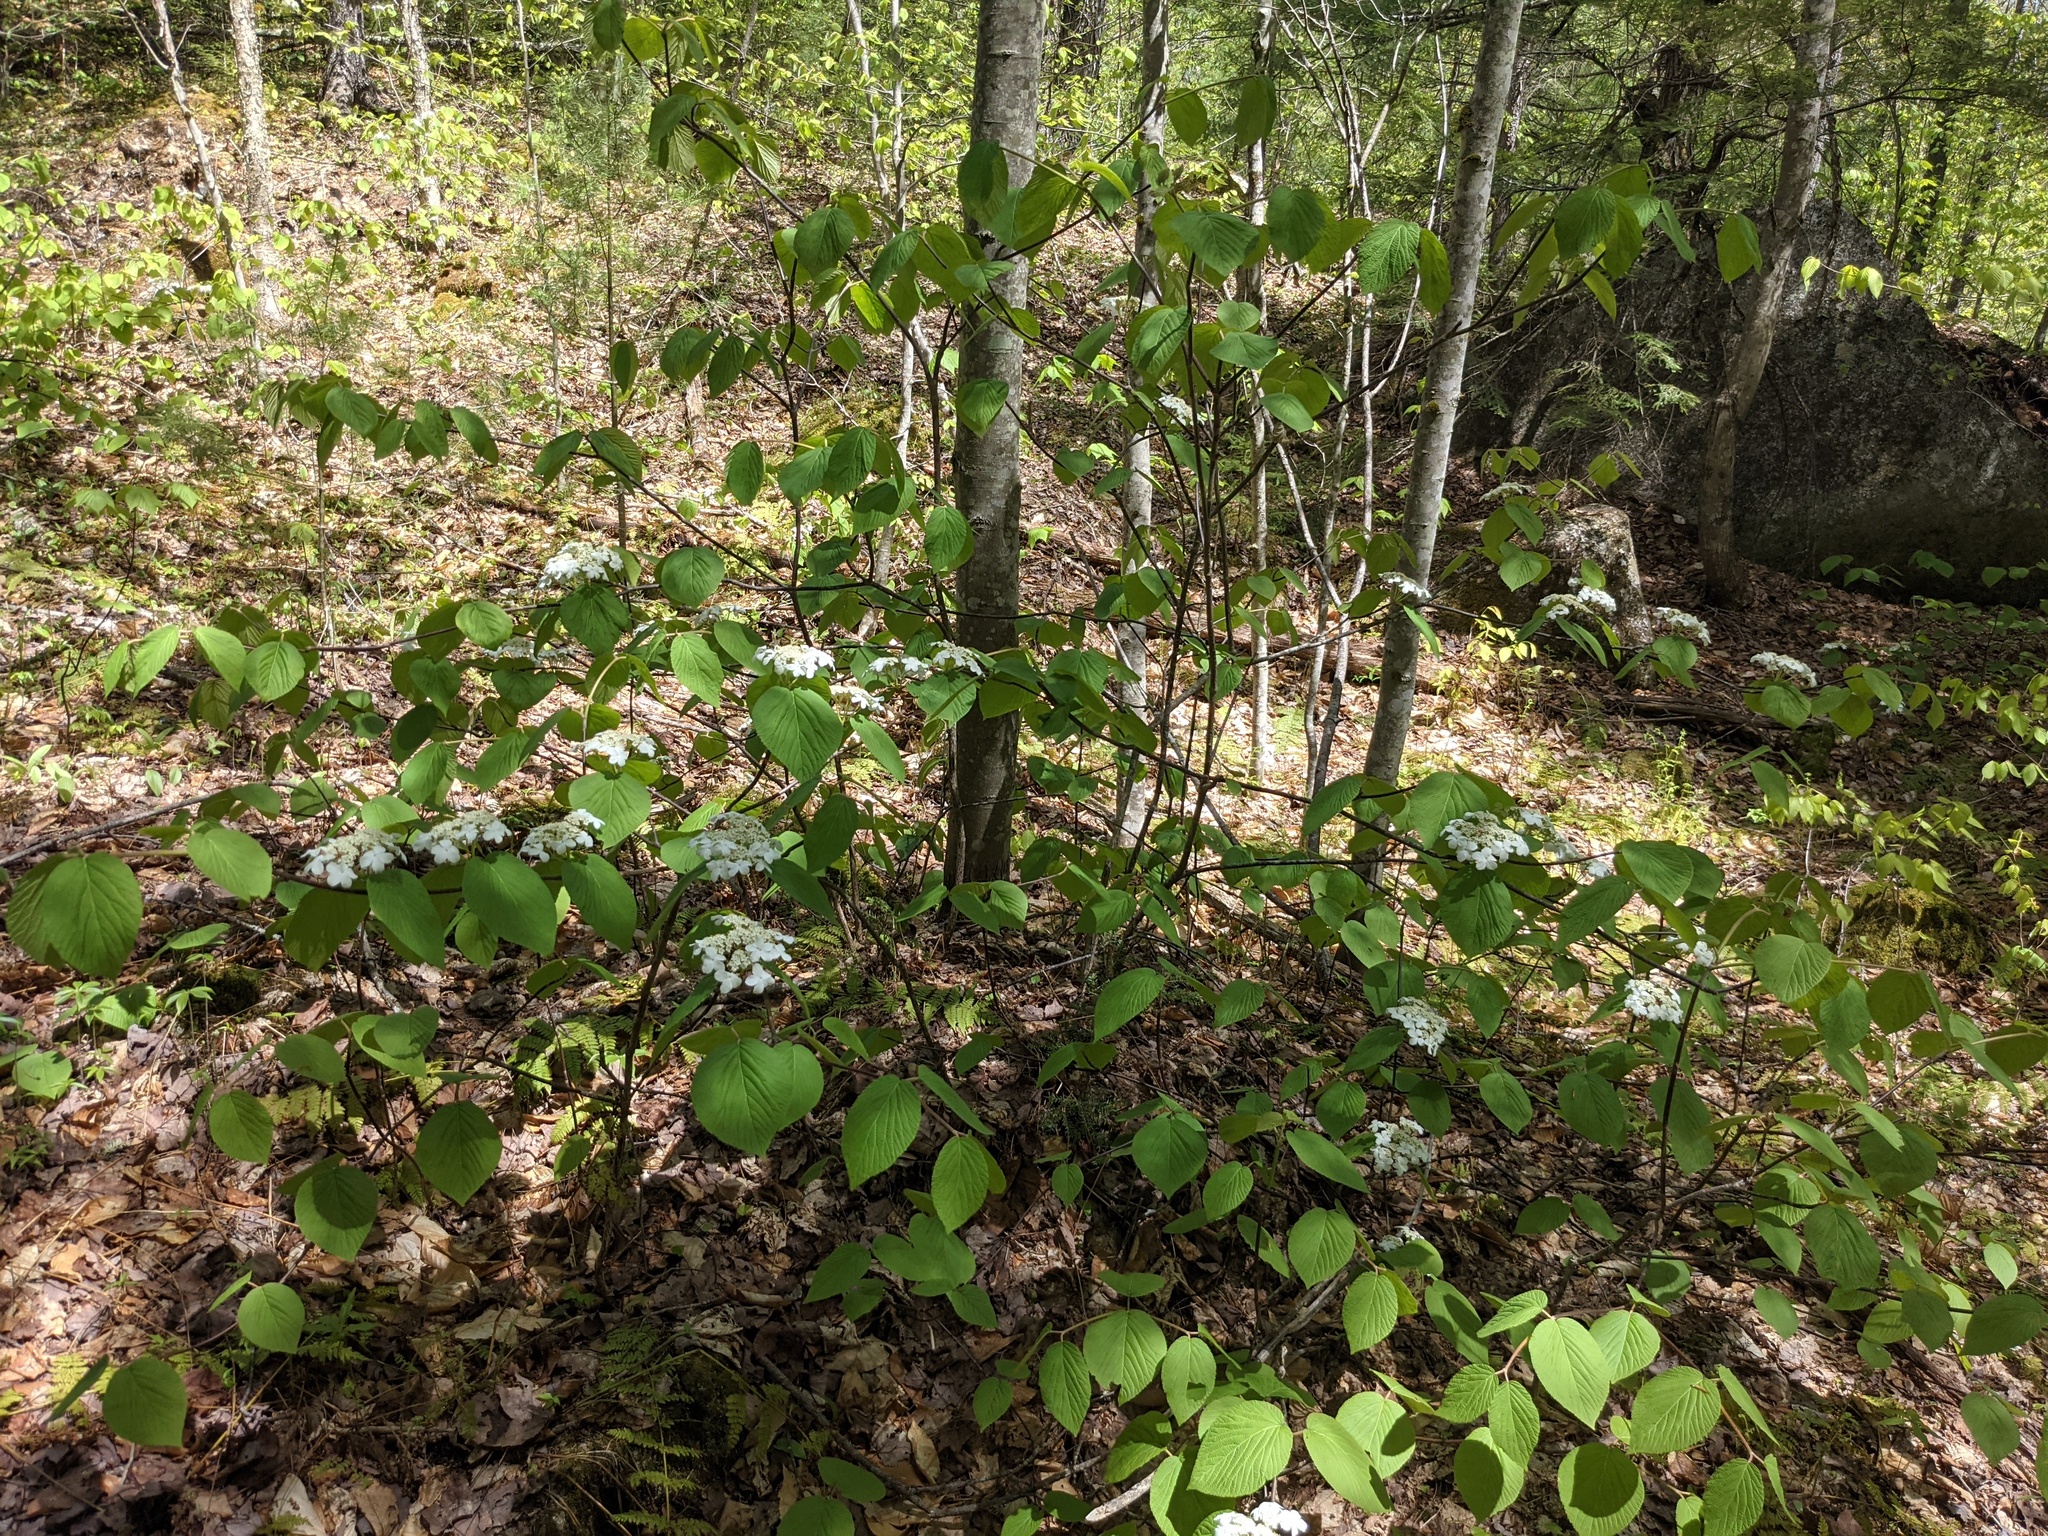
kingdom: Plantae
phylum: Tracheophyta
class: Magnoliopsida
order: Dipsacales
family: Viburnaceae
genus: Viburnum
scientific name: Viburnum lantanoides
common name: Hobblebush
